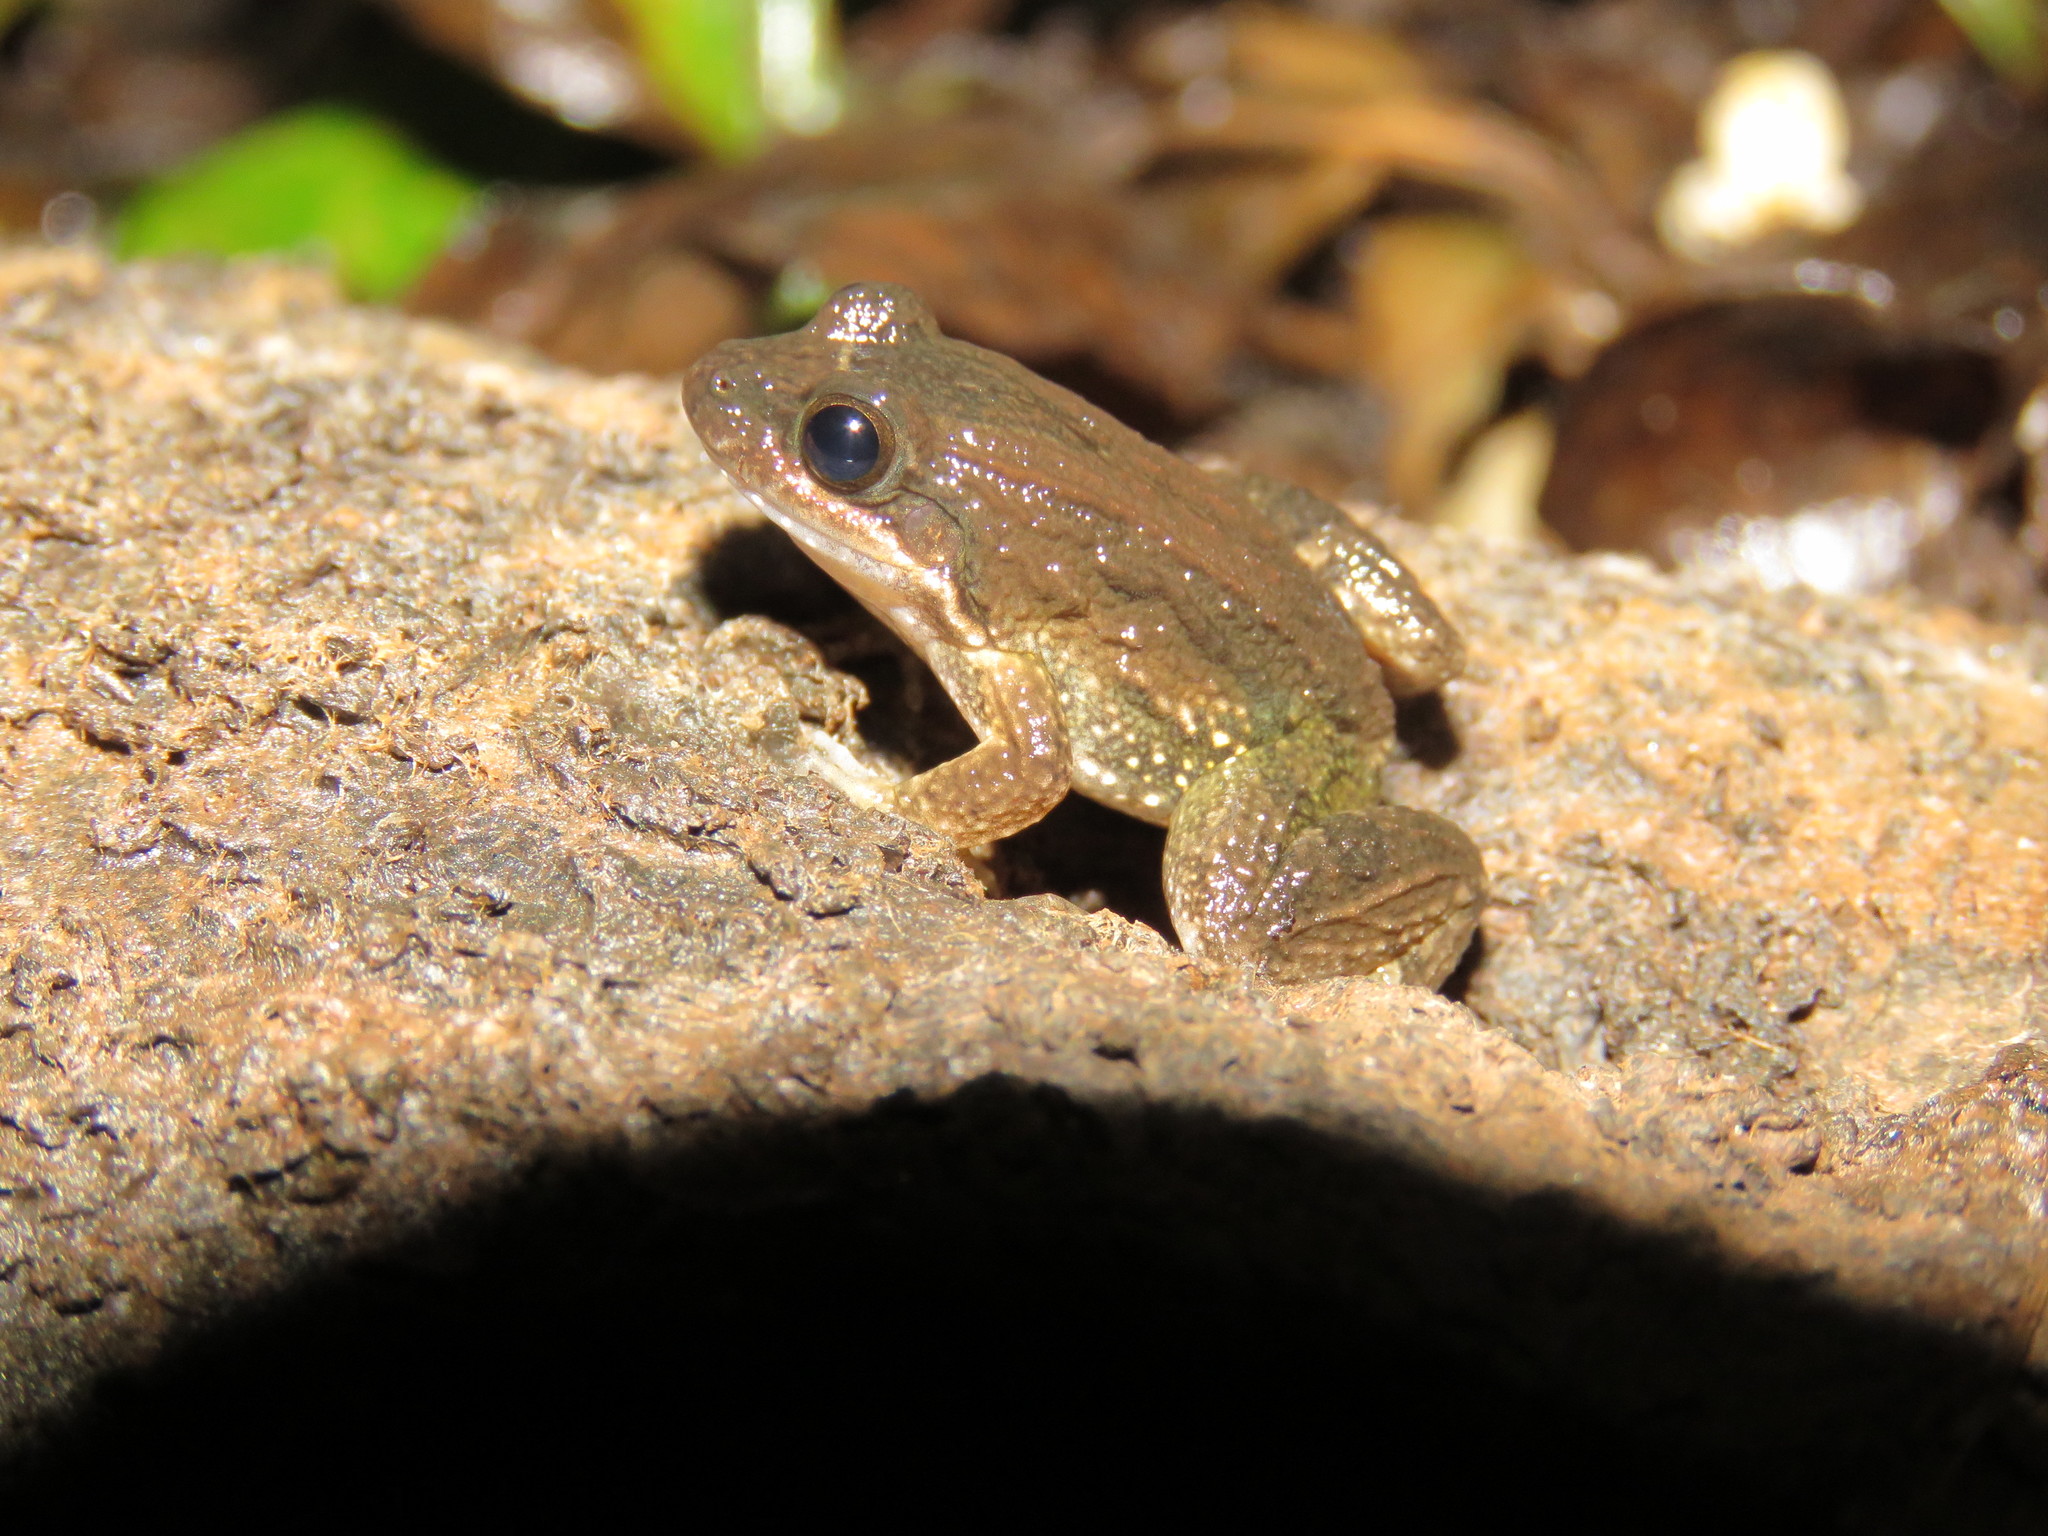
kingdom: Animalia
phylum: Chordata
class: Amphibia
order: Anura
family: Leptodactylidae
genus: Leptodactylus
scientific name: Leptodactylus petersii
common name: Peters' thin-toed frog
